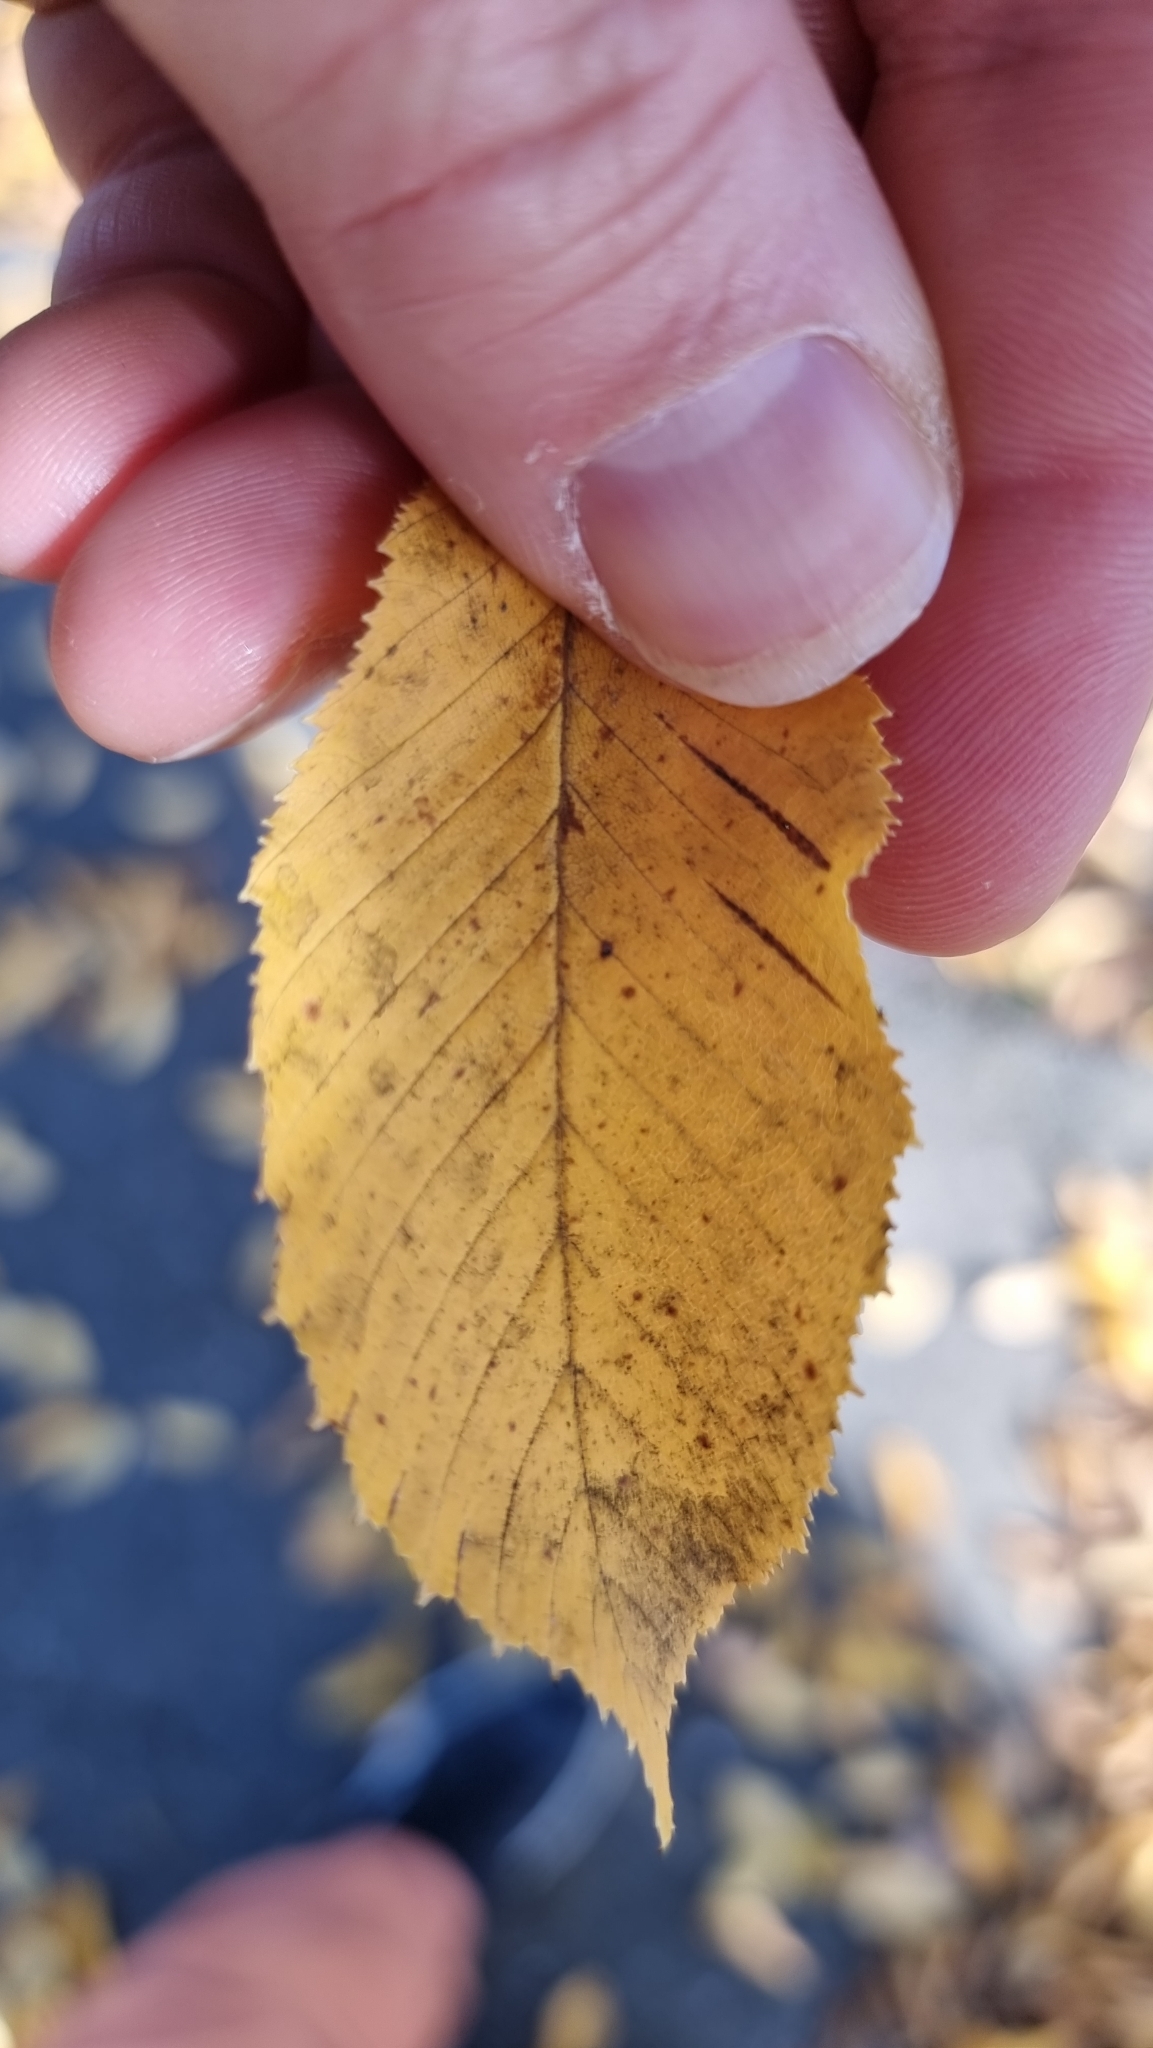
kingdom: Plantae
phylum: Tracheophyta
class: Magnoliopsida
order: Fagales
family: Betulaceae
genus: Carpinus
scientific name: Carpinus betulus
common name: Hornbeam
